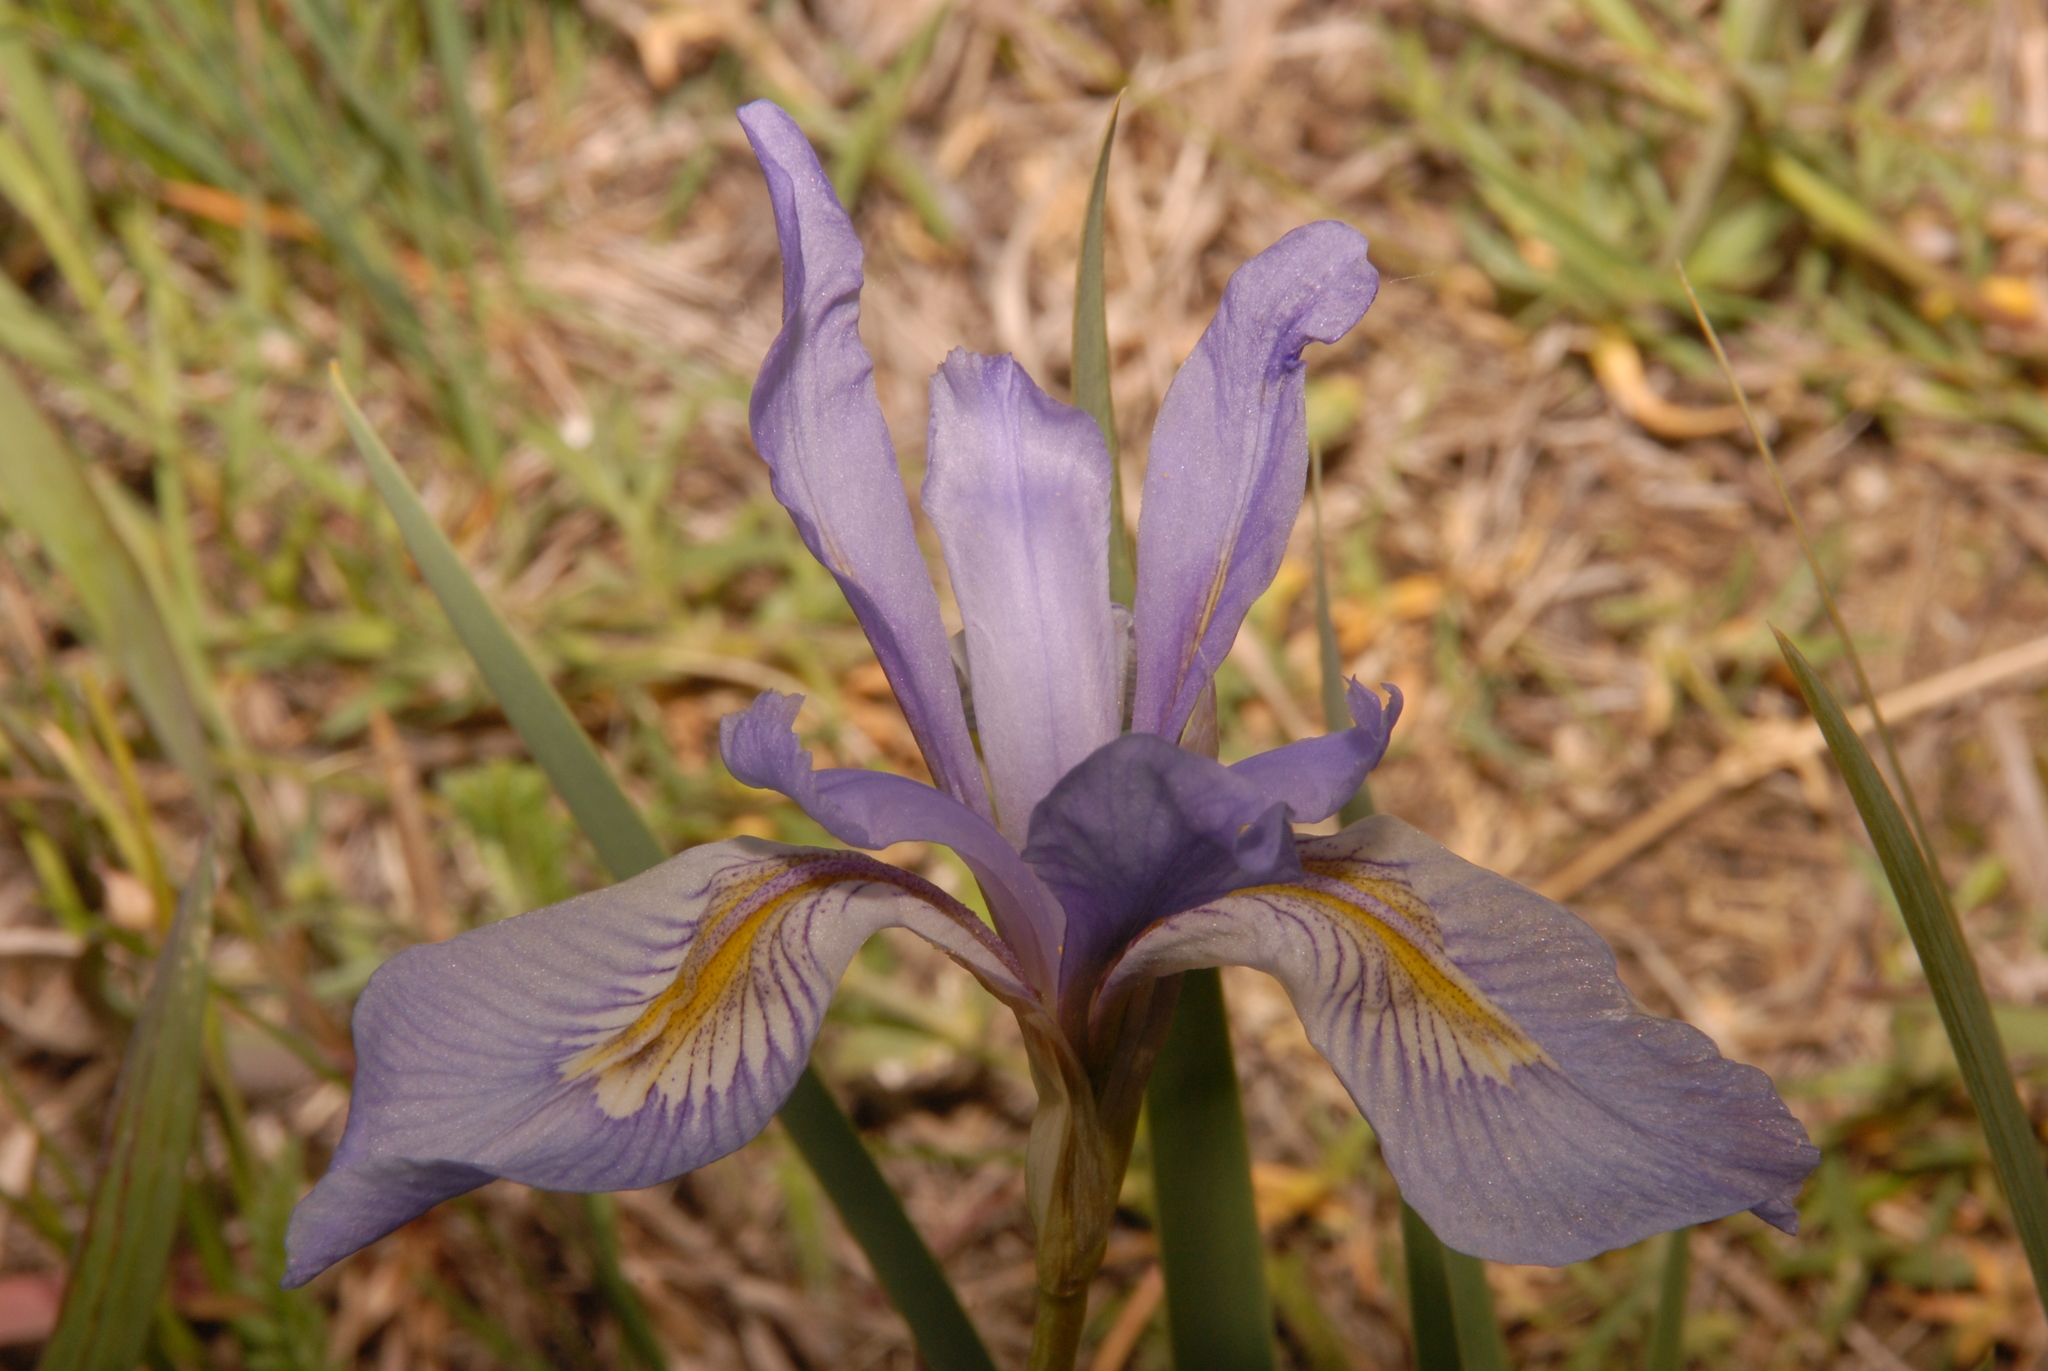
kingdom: Plantae
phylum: Tracheophyta
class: Liliopsida
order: Asparagales
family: Iridaceae
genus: Iris
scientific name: Iris missouriensis
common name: Rocky mountain iris
